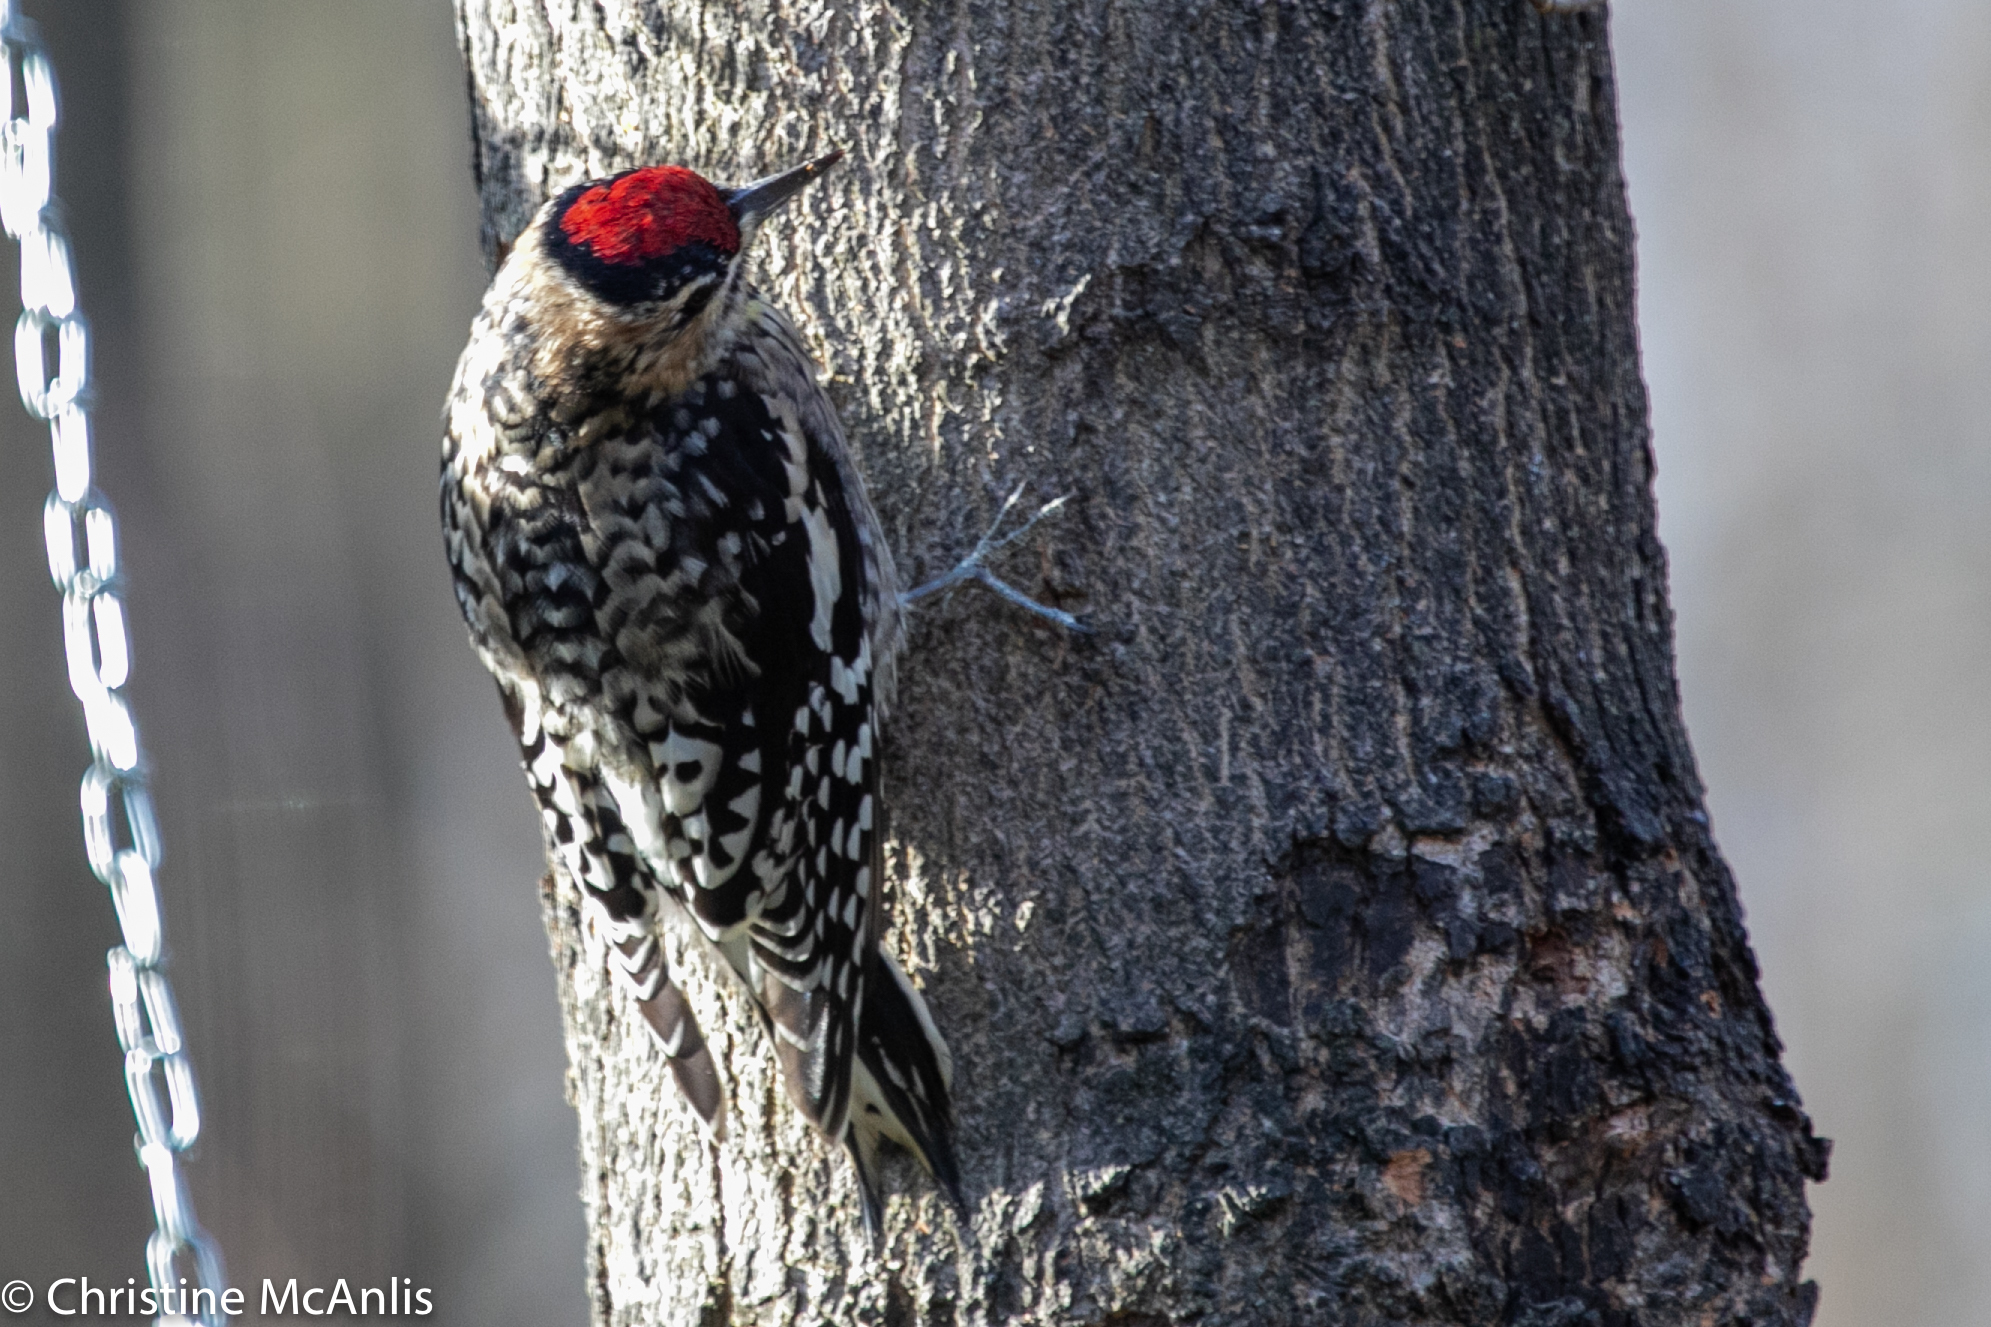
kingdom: Animalia
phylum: Chordata
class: Aves
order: Piciformes
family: Picidae
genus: Sphyrapicus
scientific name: Sphyrapicus varius
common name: Yellow-bellied sapsucker
